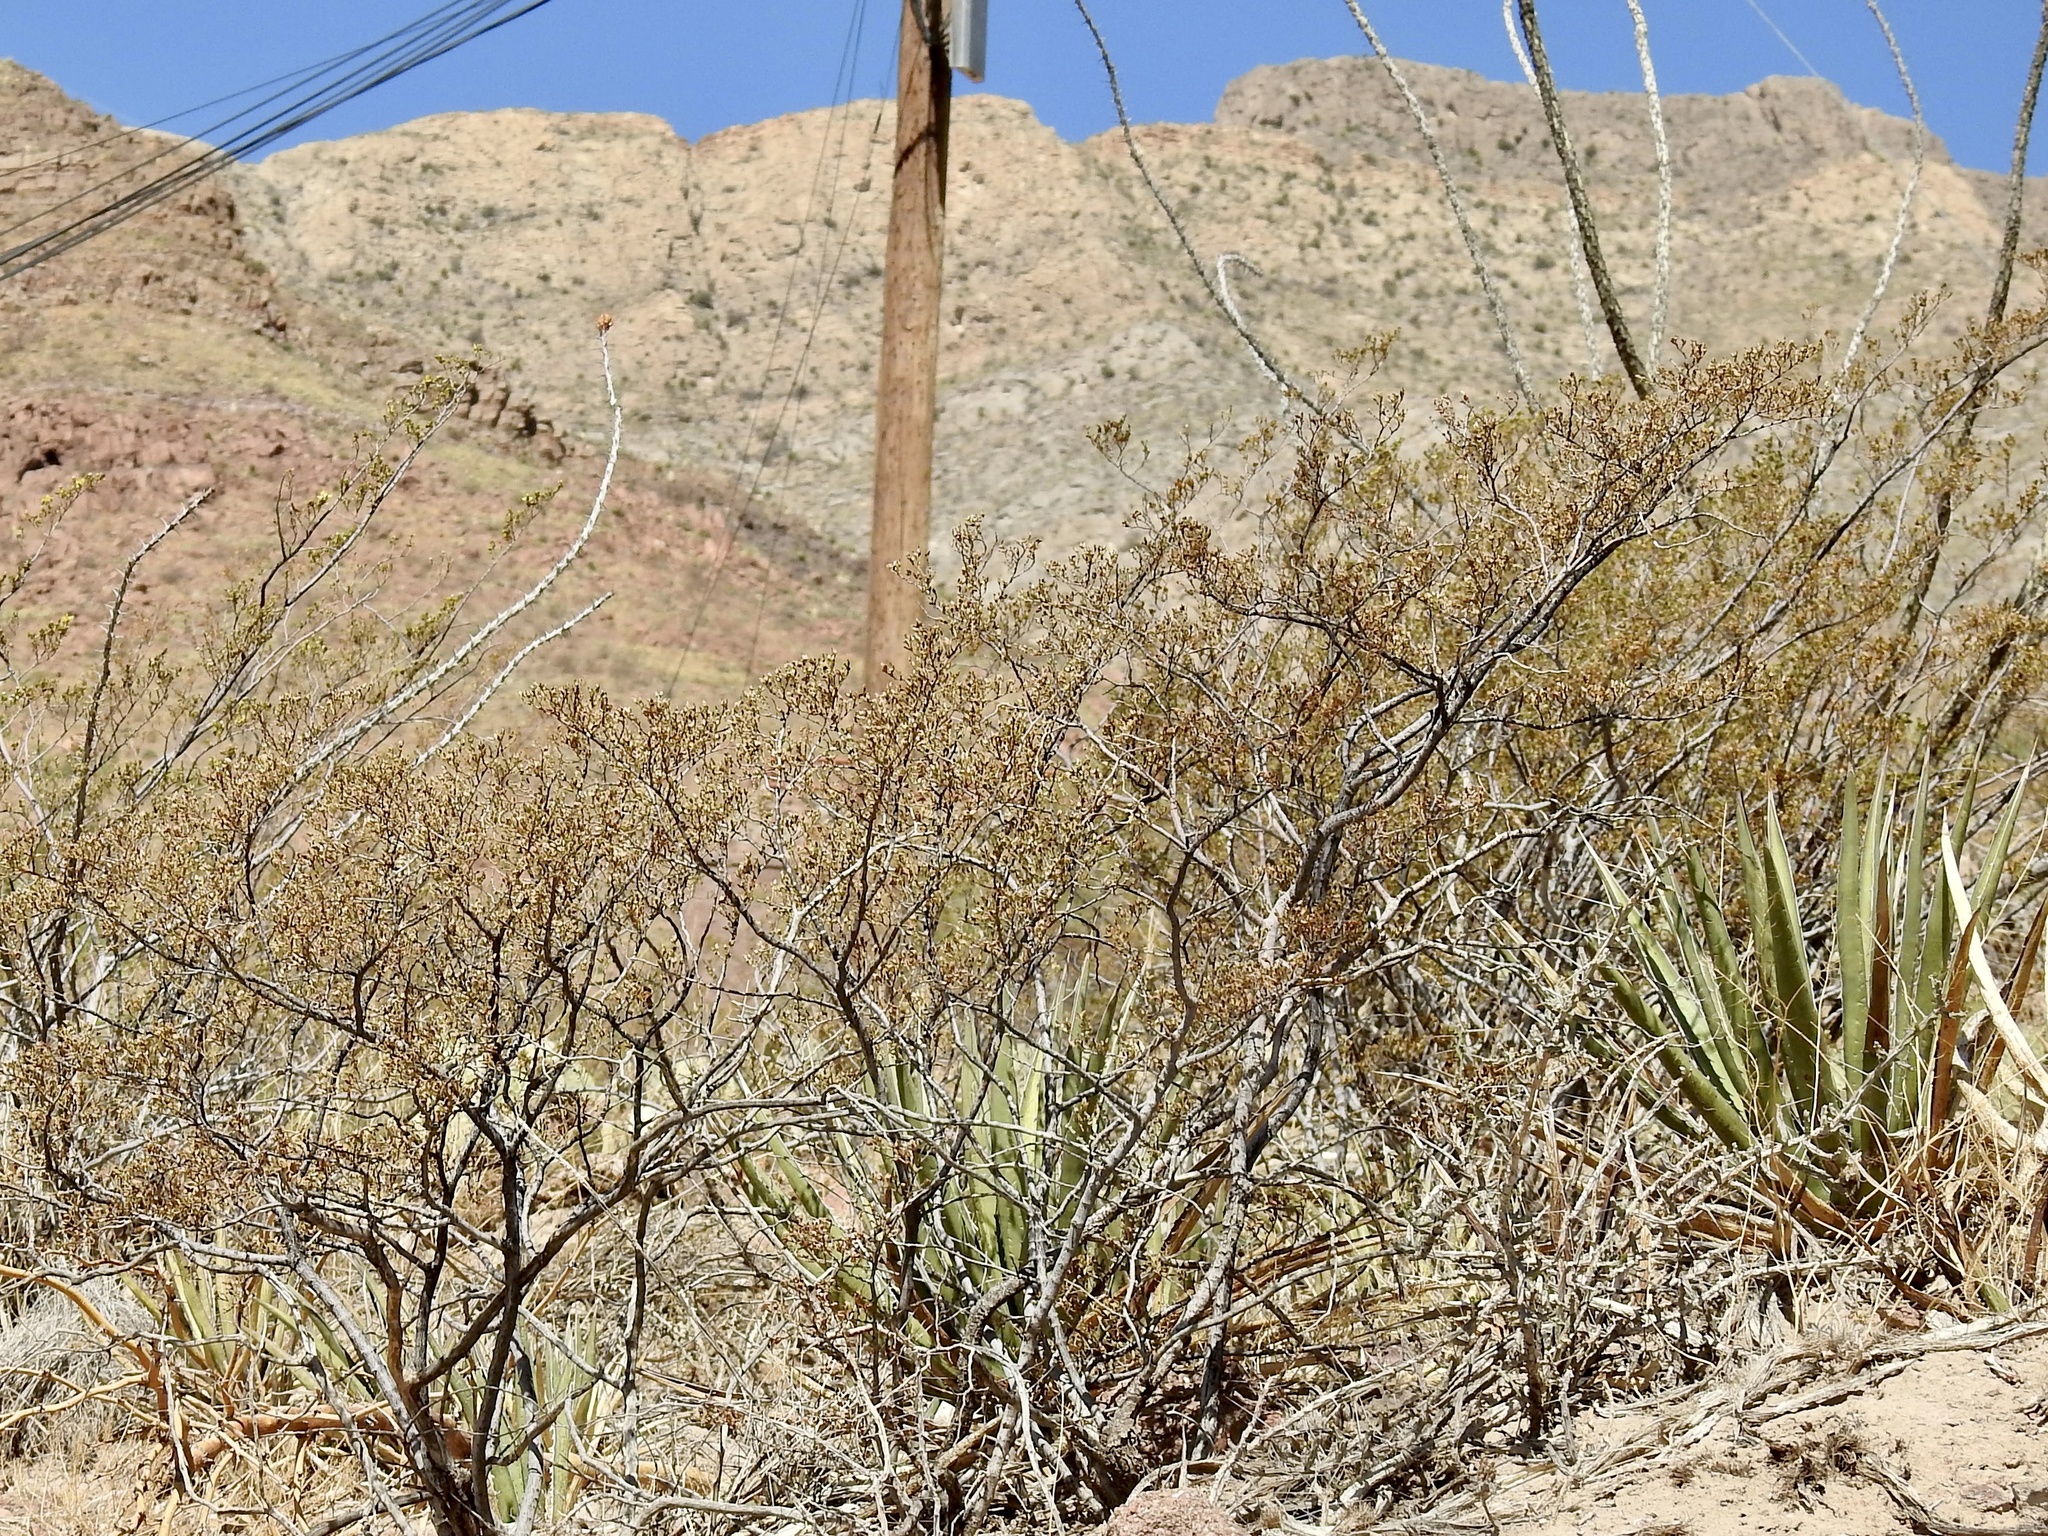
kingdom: Plantae
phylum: Tracheophyta
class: Magnoliopsida
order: Zygophyllales
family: Zygophyllaceae
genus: Larrea
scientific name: Larrea tridentata
